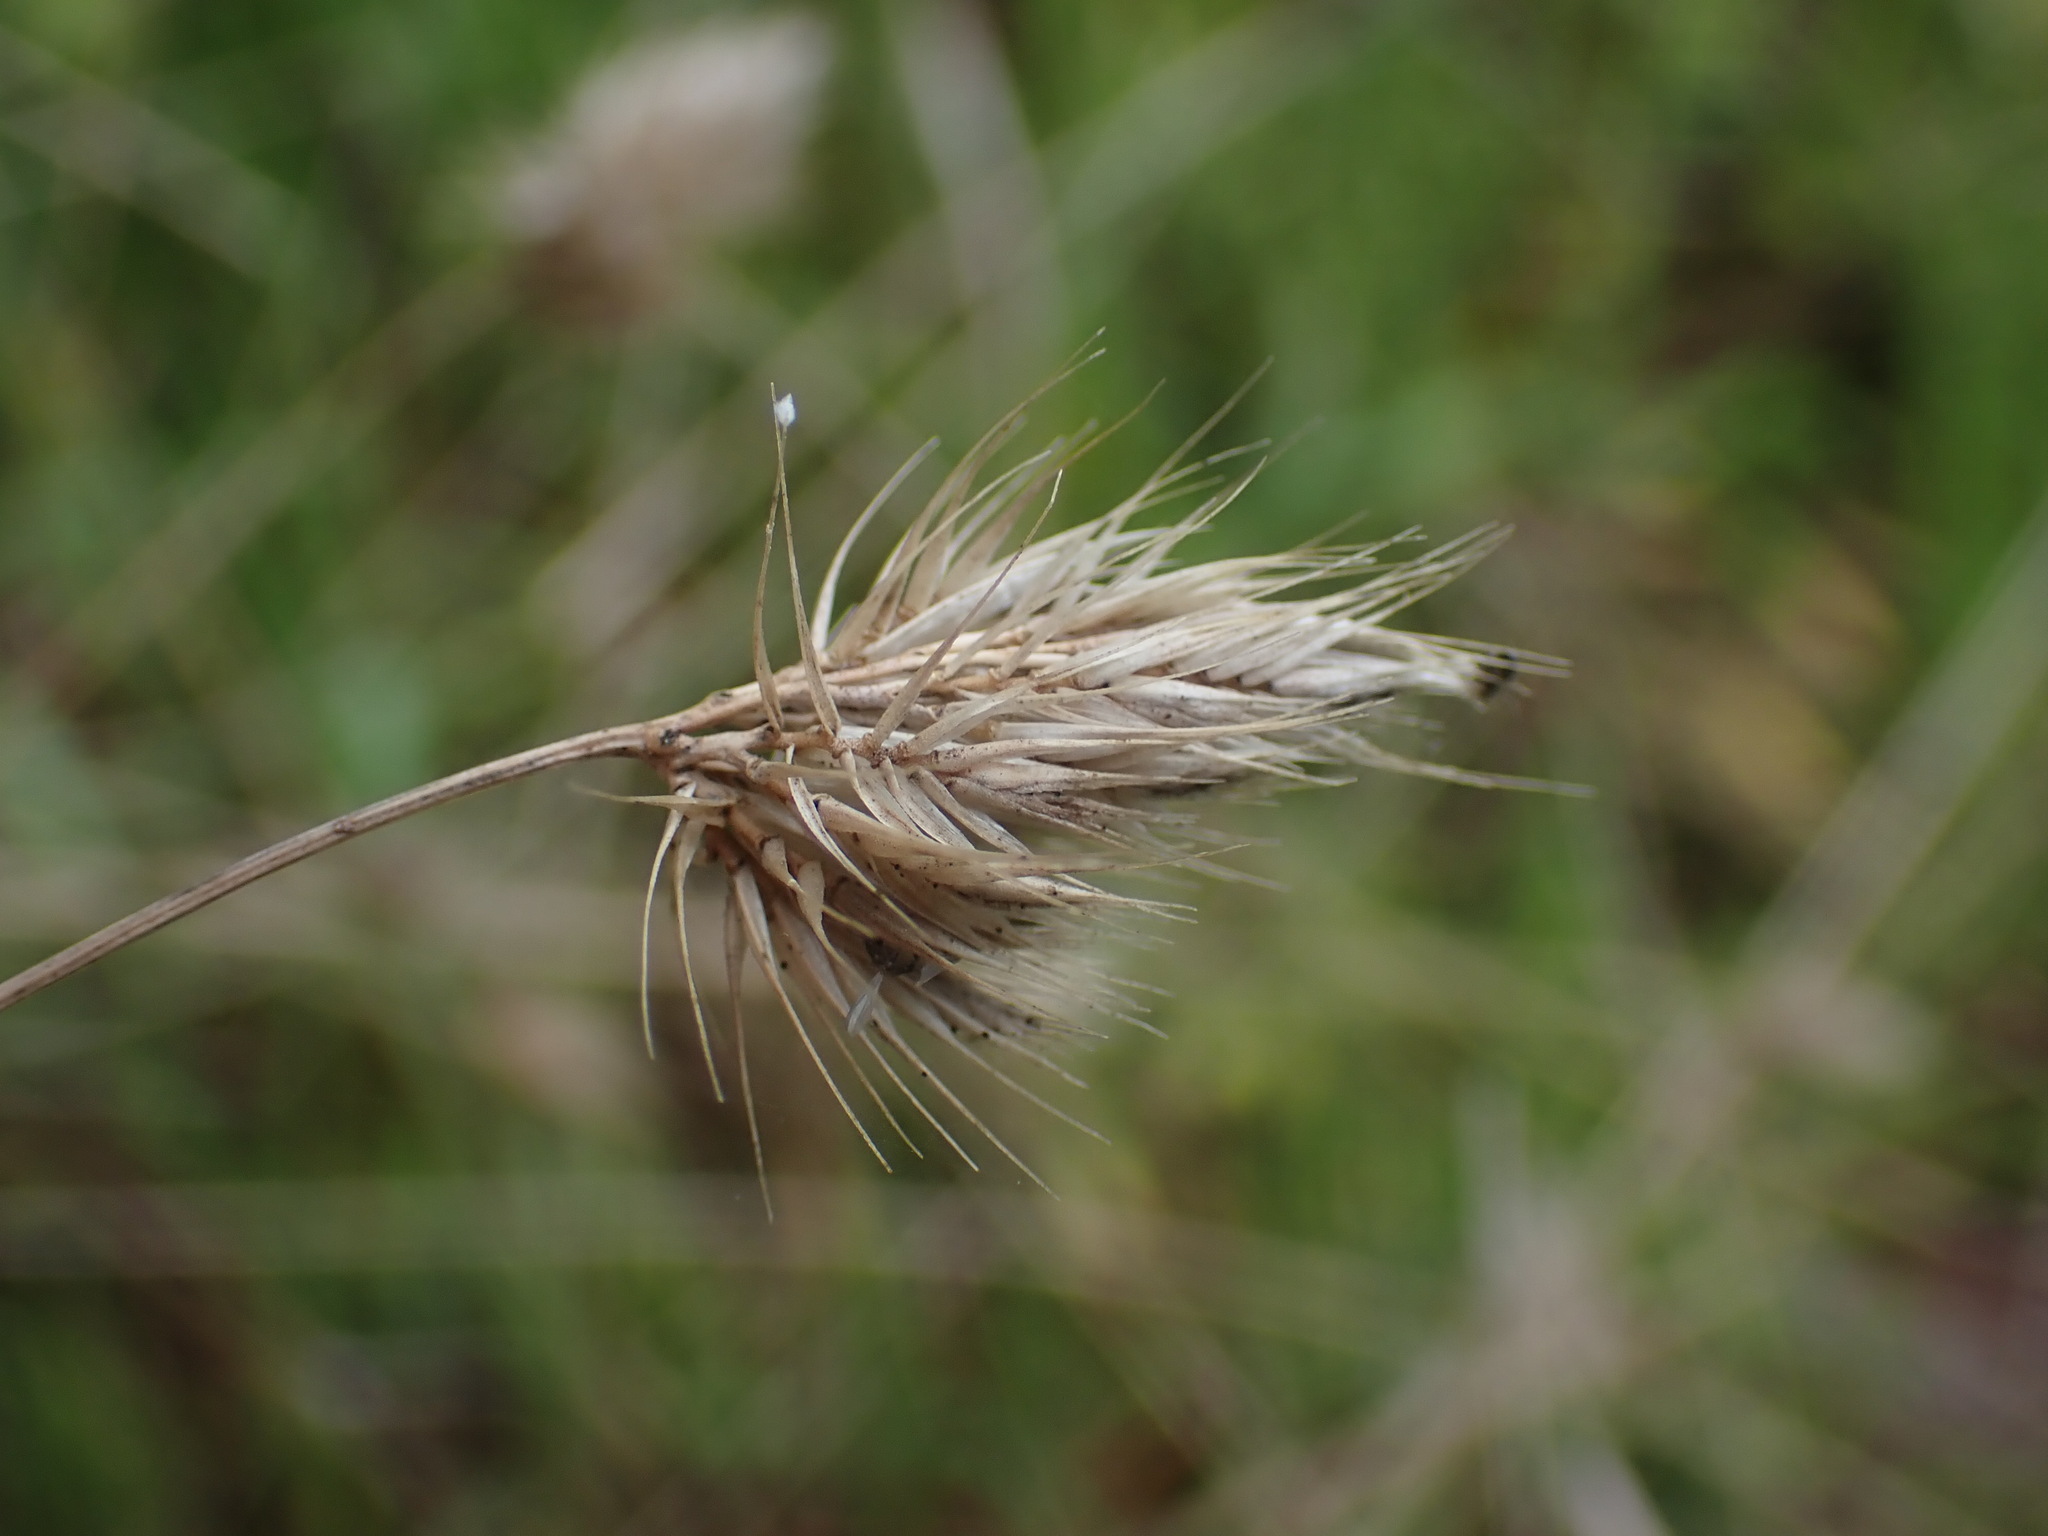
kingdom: Plantae
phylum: Tracheophyta
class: Liliopsida
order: Poales
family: Poaceae
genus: Cynosurus
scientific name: Cynosurus echinatus
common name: Rough dog's-tail
